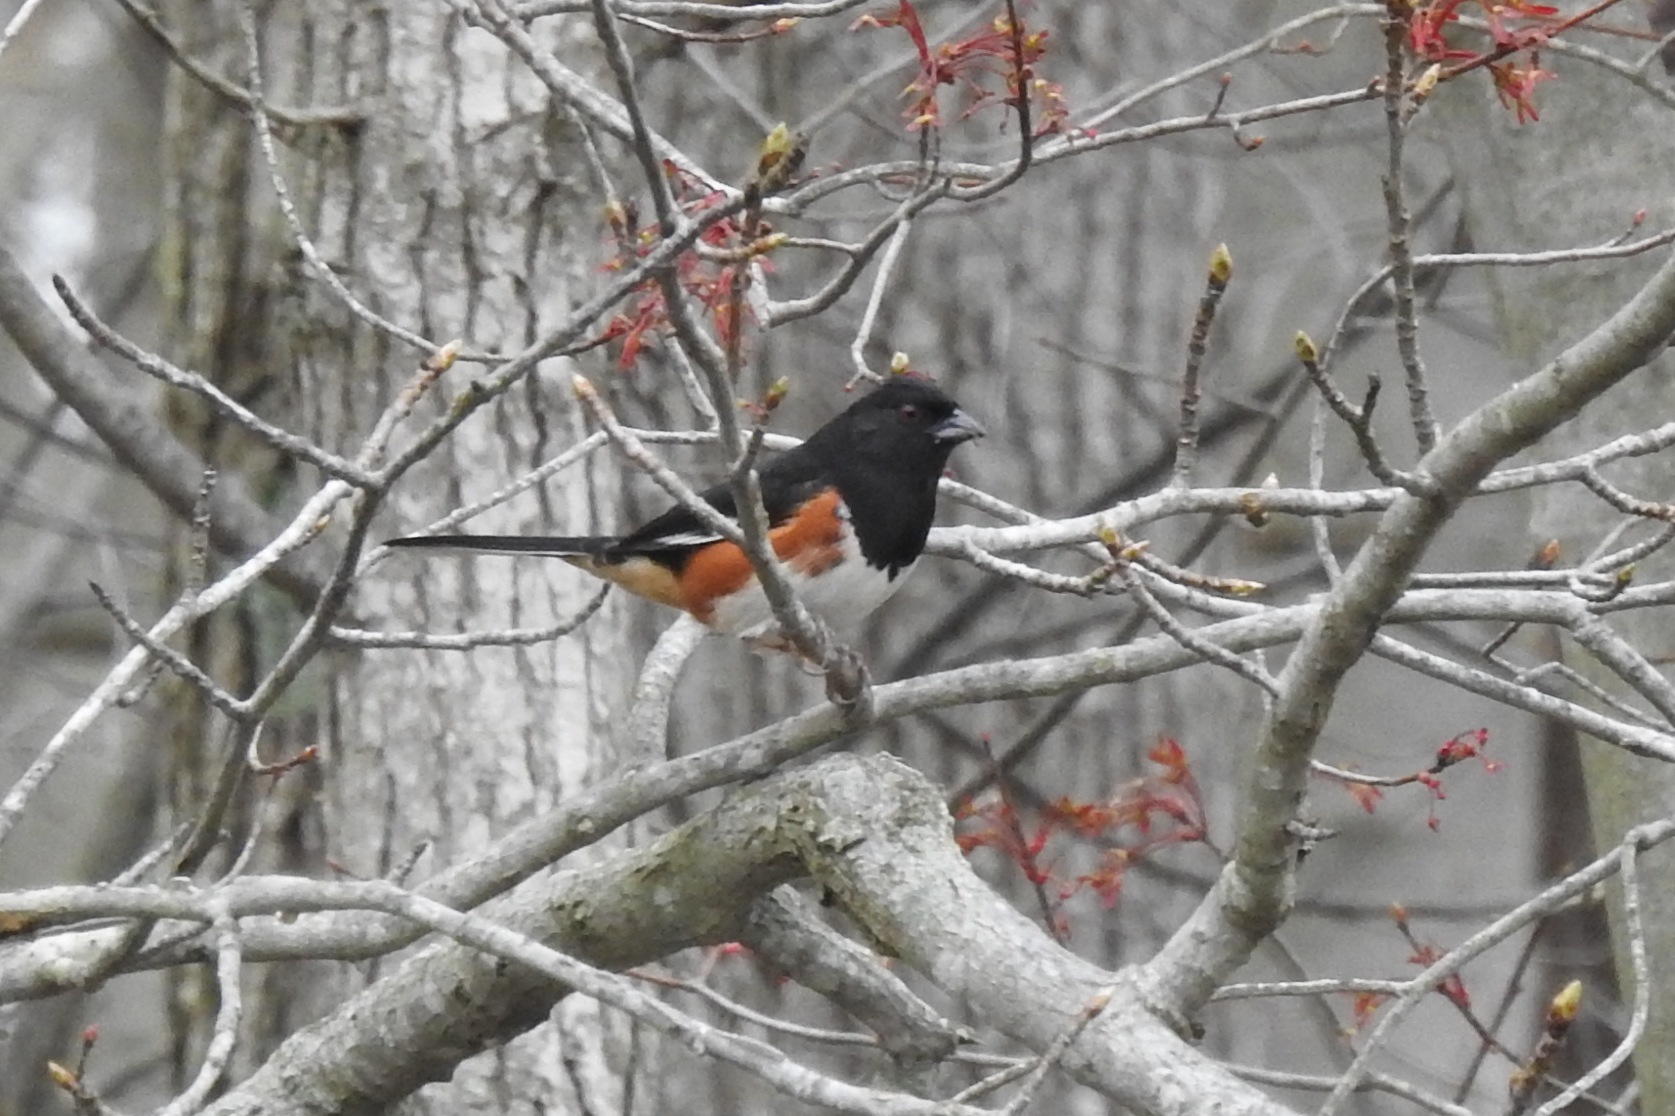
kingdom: Animalia
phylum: Chordata
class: Aves
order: Passeriformes
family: Passerellidae
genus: Pipilo
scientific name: Pipilo erythrophthalmus
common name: Eastern towhee
